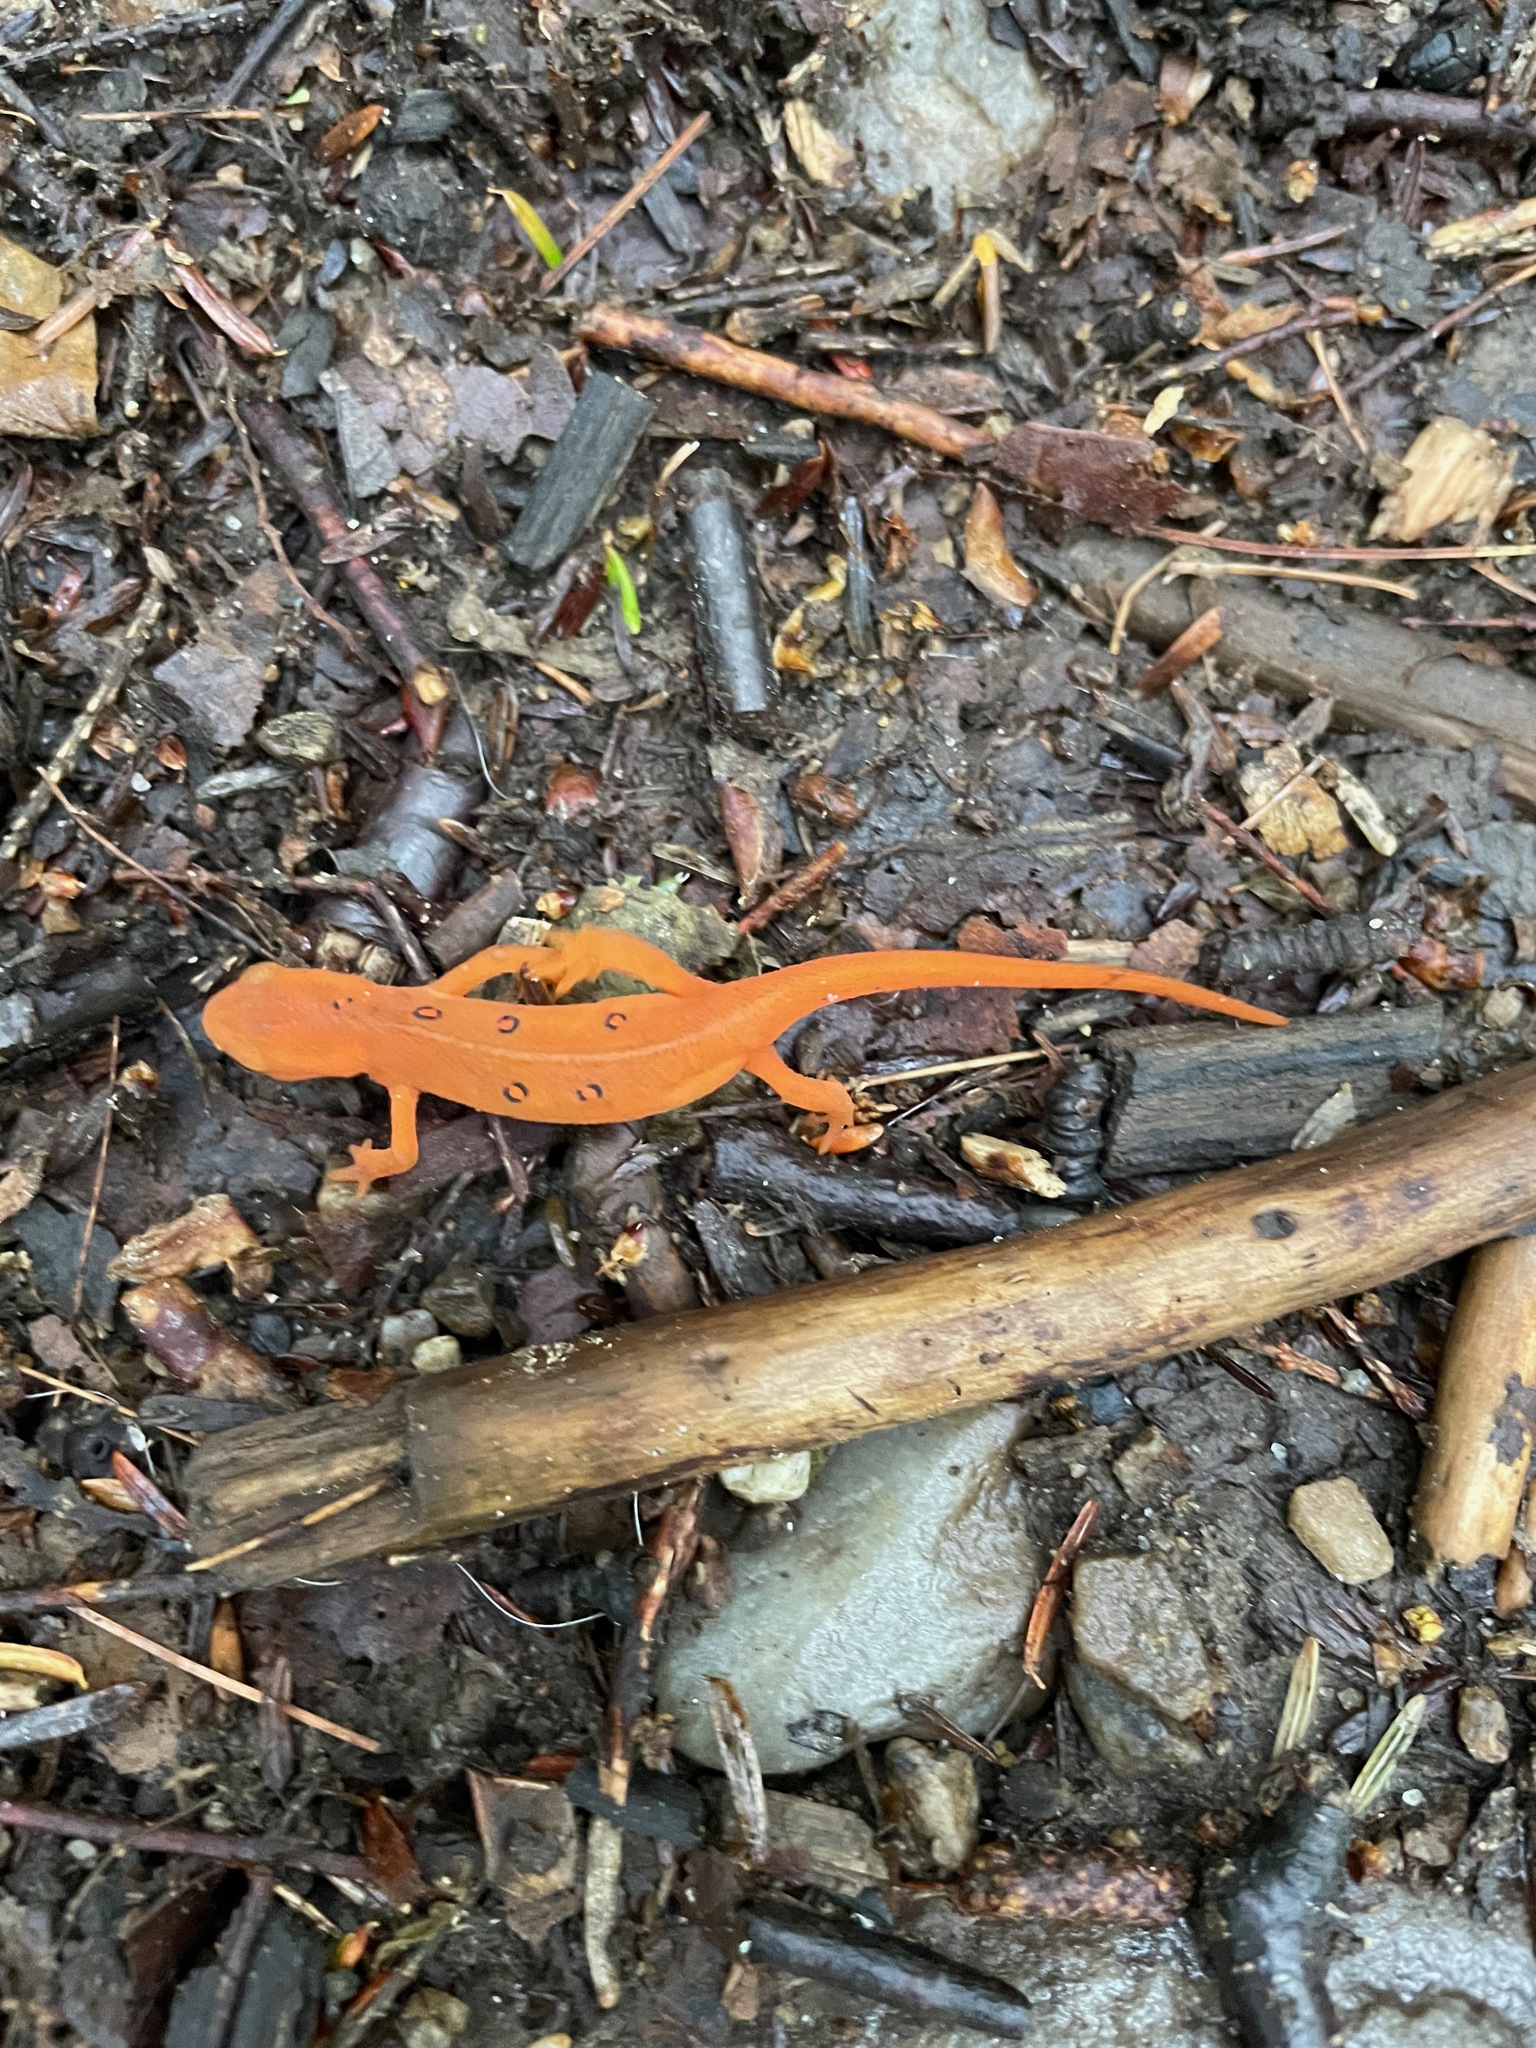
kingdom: Animalia
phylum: Chordata
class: Amphibia
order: Caudata
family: Salamandridae
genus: Notophthalmus
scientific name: Notophthalmus viridescens
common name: Eastern newt
